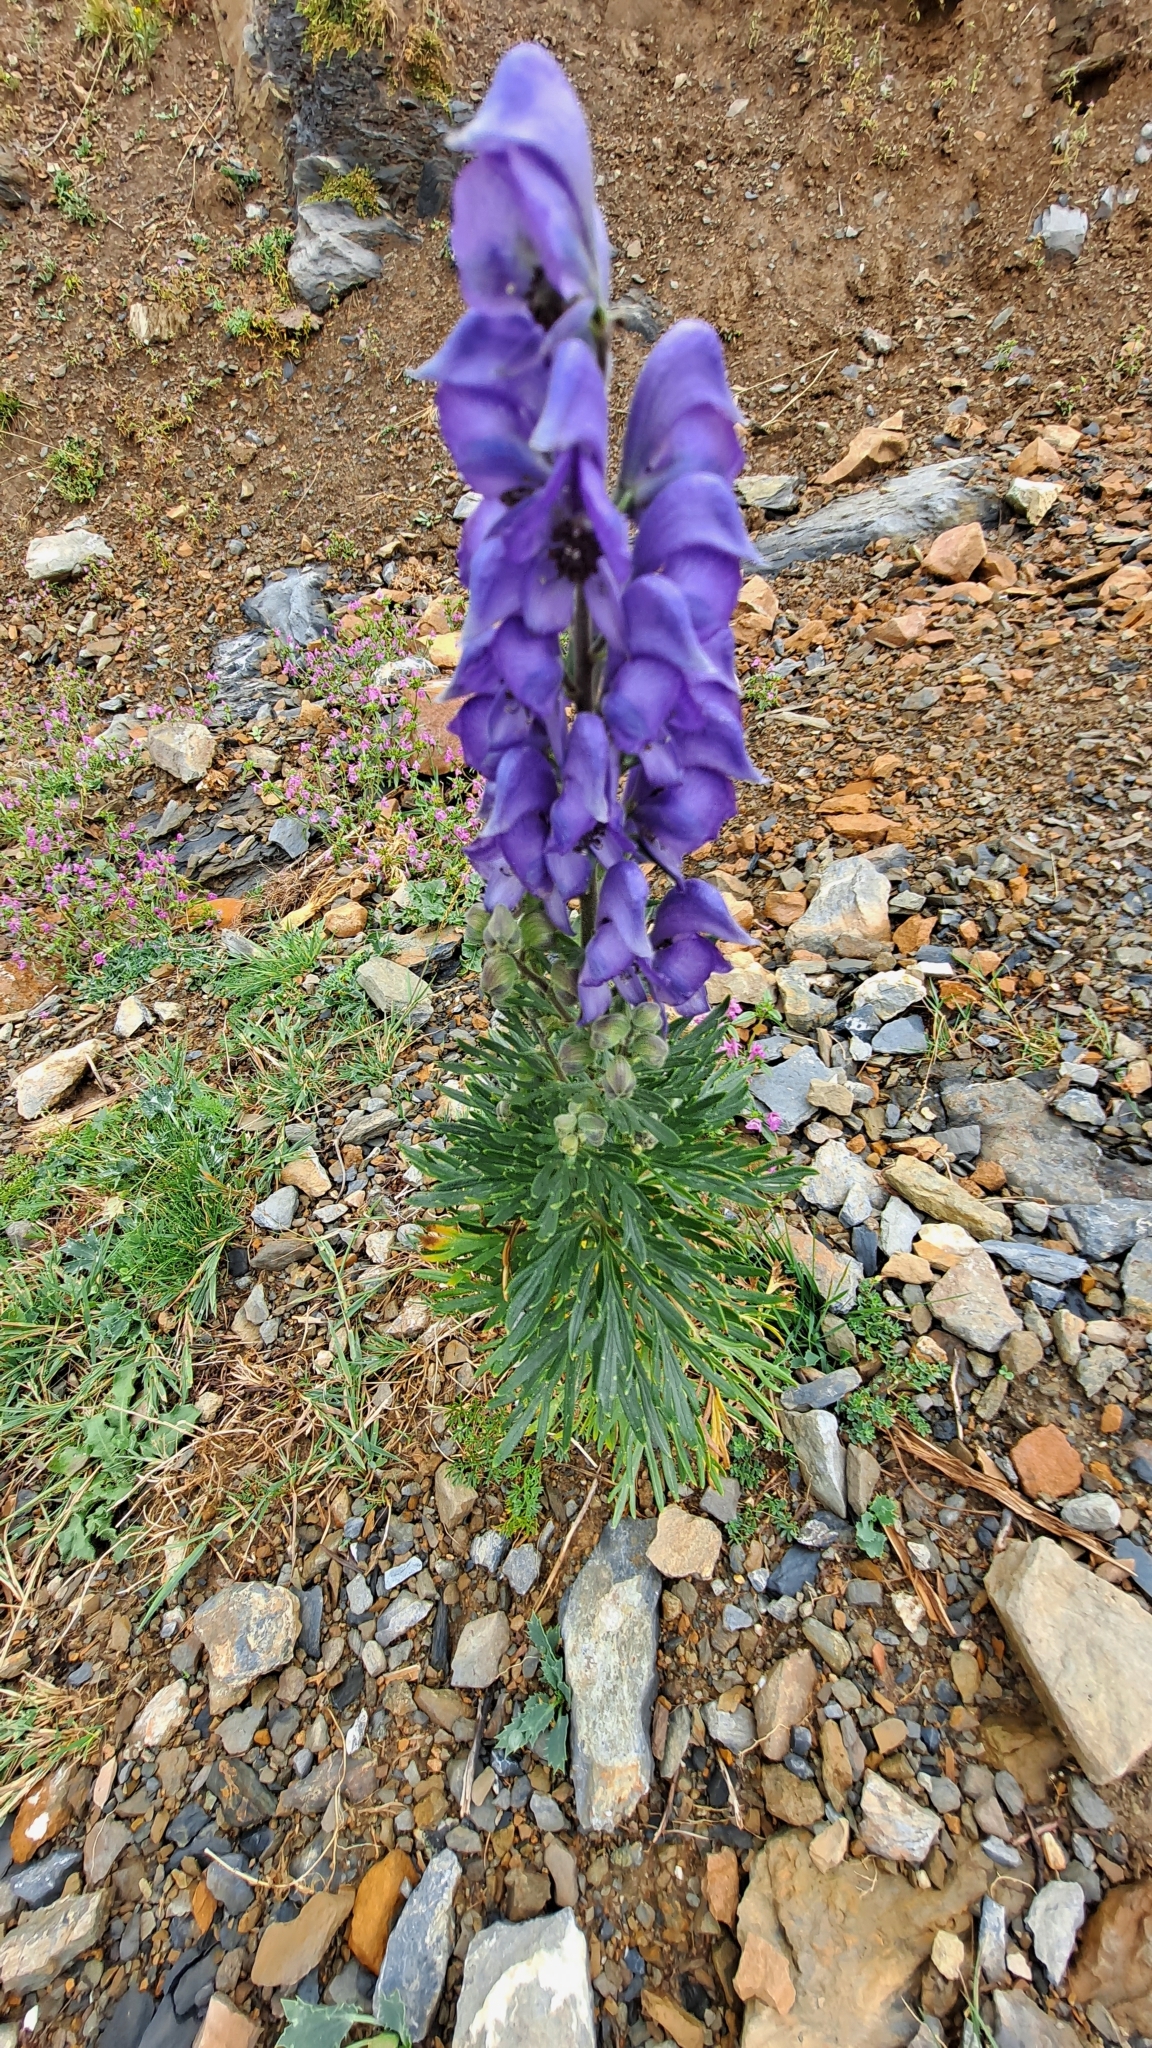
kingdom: Plantae
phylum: Tracheophyta
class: Magnoliopsida
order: Ranunculales
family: Ranunculaceae
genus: Aconitum
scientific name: Aconitum napellus
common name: Garden monkshood
